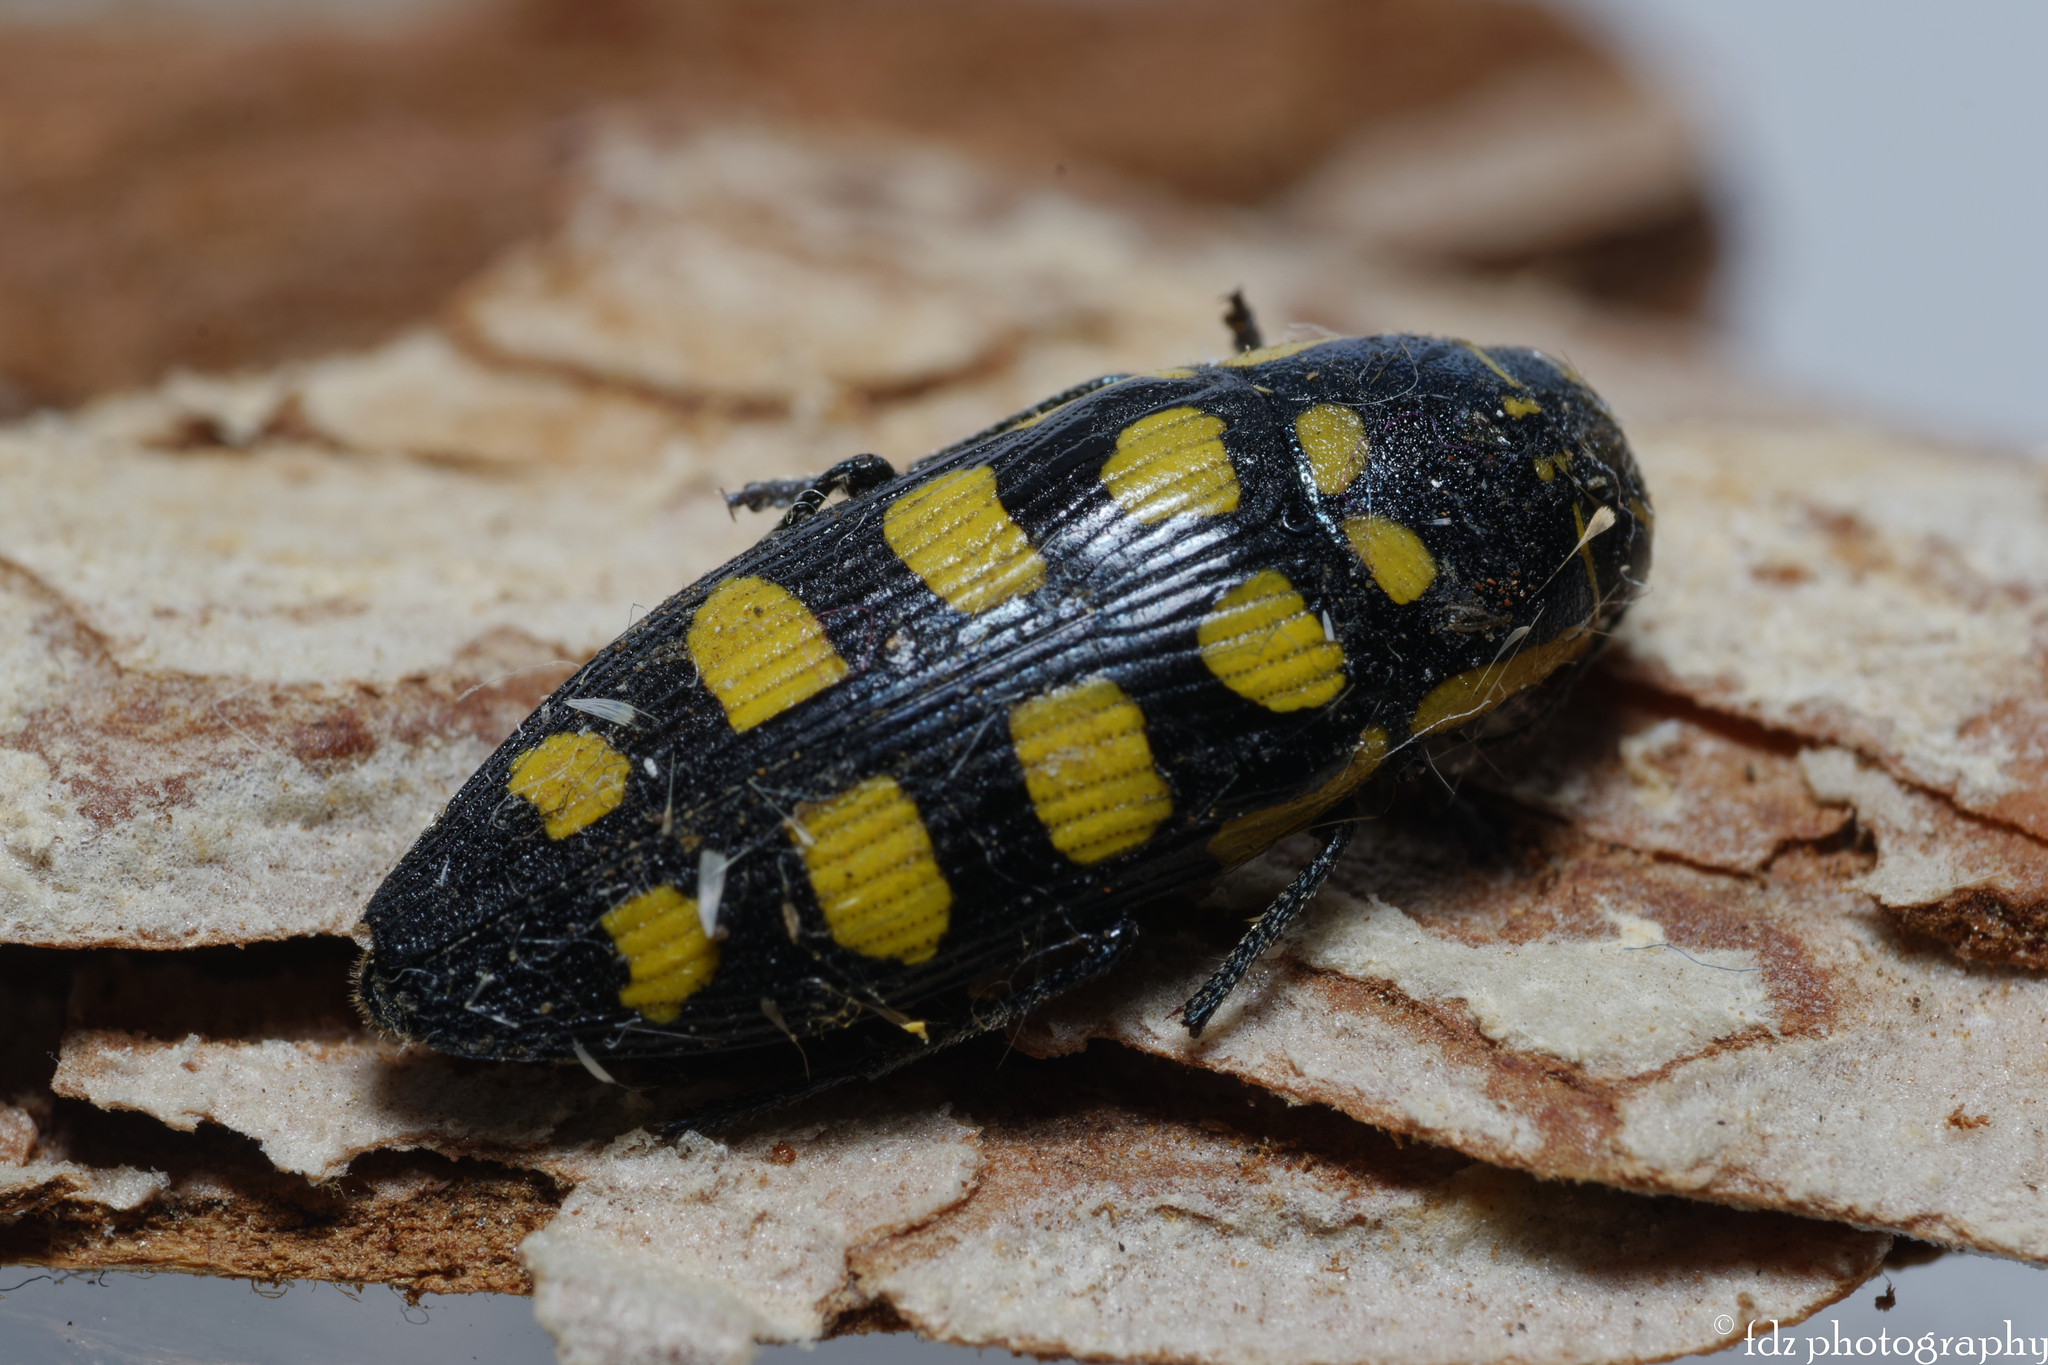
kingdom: Animalia
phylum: Arthropoda
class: Insecta
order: Coleoptera
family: Buprestidae
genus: Buprestis
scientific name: Buprestis octoguttata
